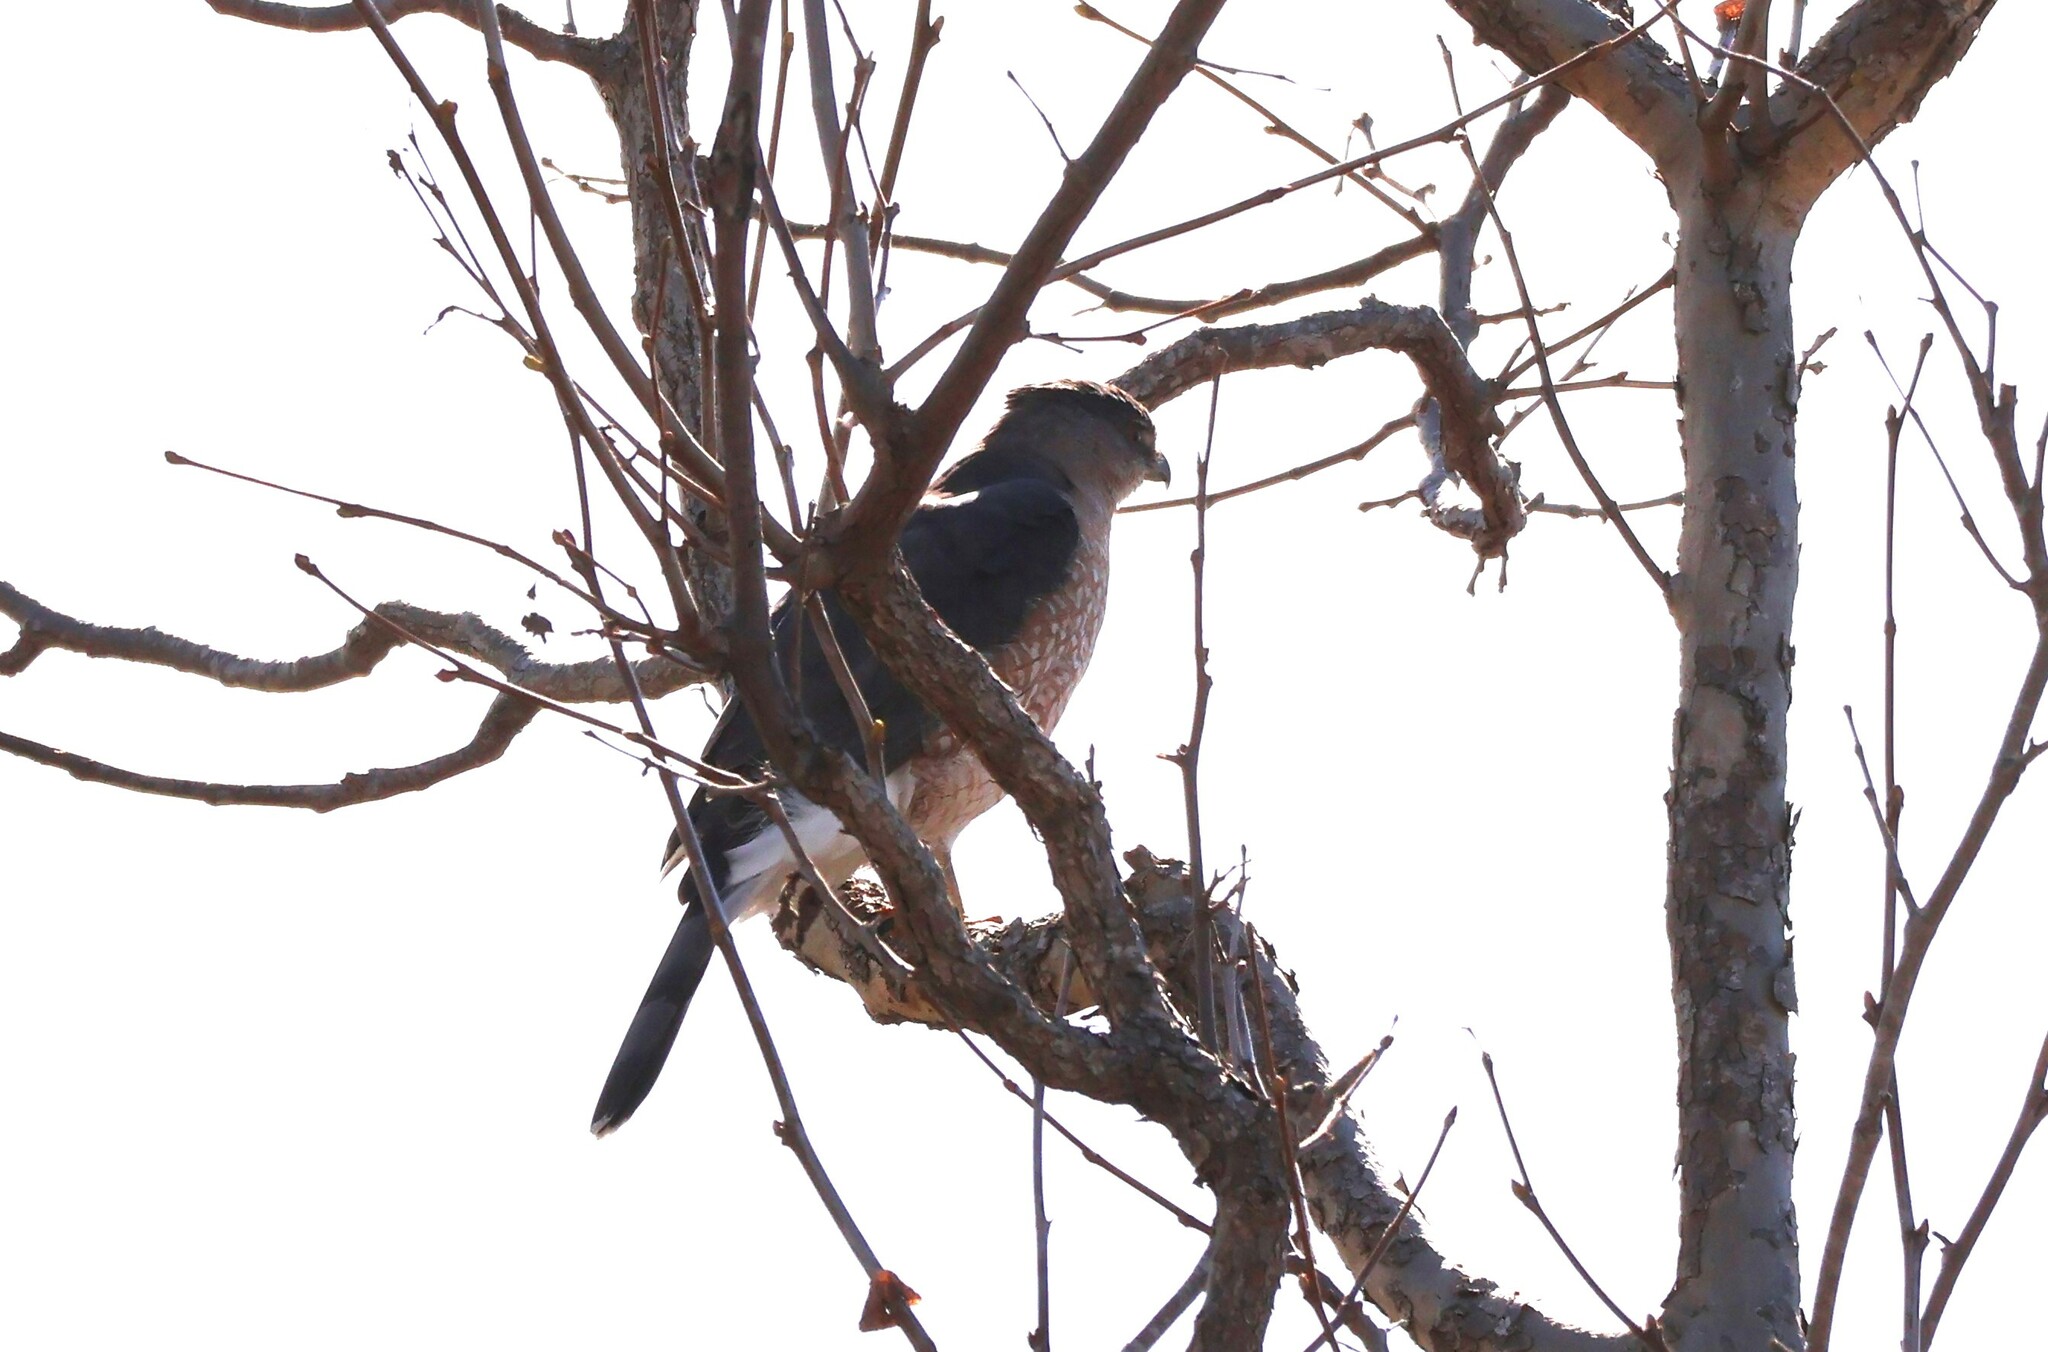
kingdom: Animalia
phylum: Chordata
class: Aves
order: Accipitriformes
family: Accipitridae
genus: Accipiter
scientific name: Accipiter cooperii
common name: Cooper's hawk
